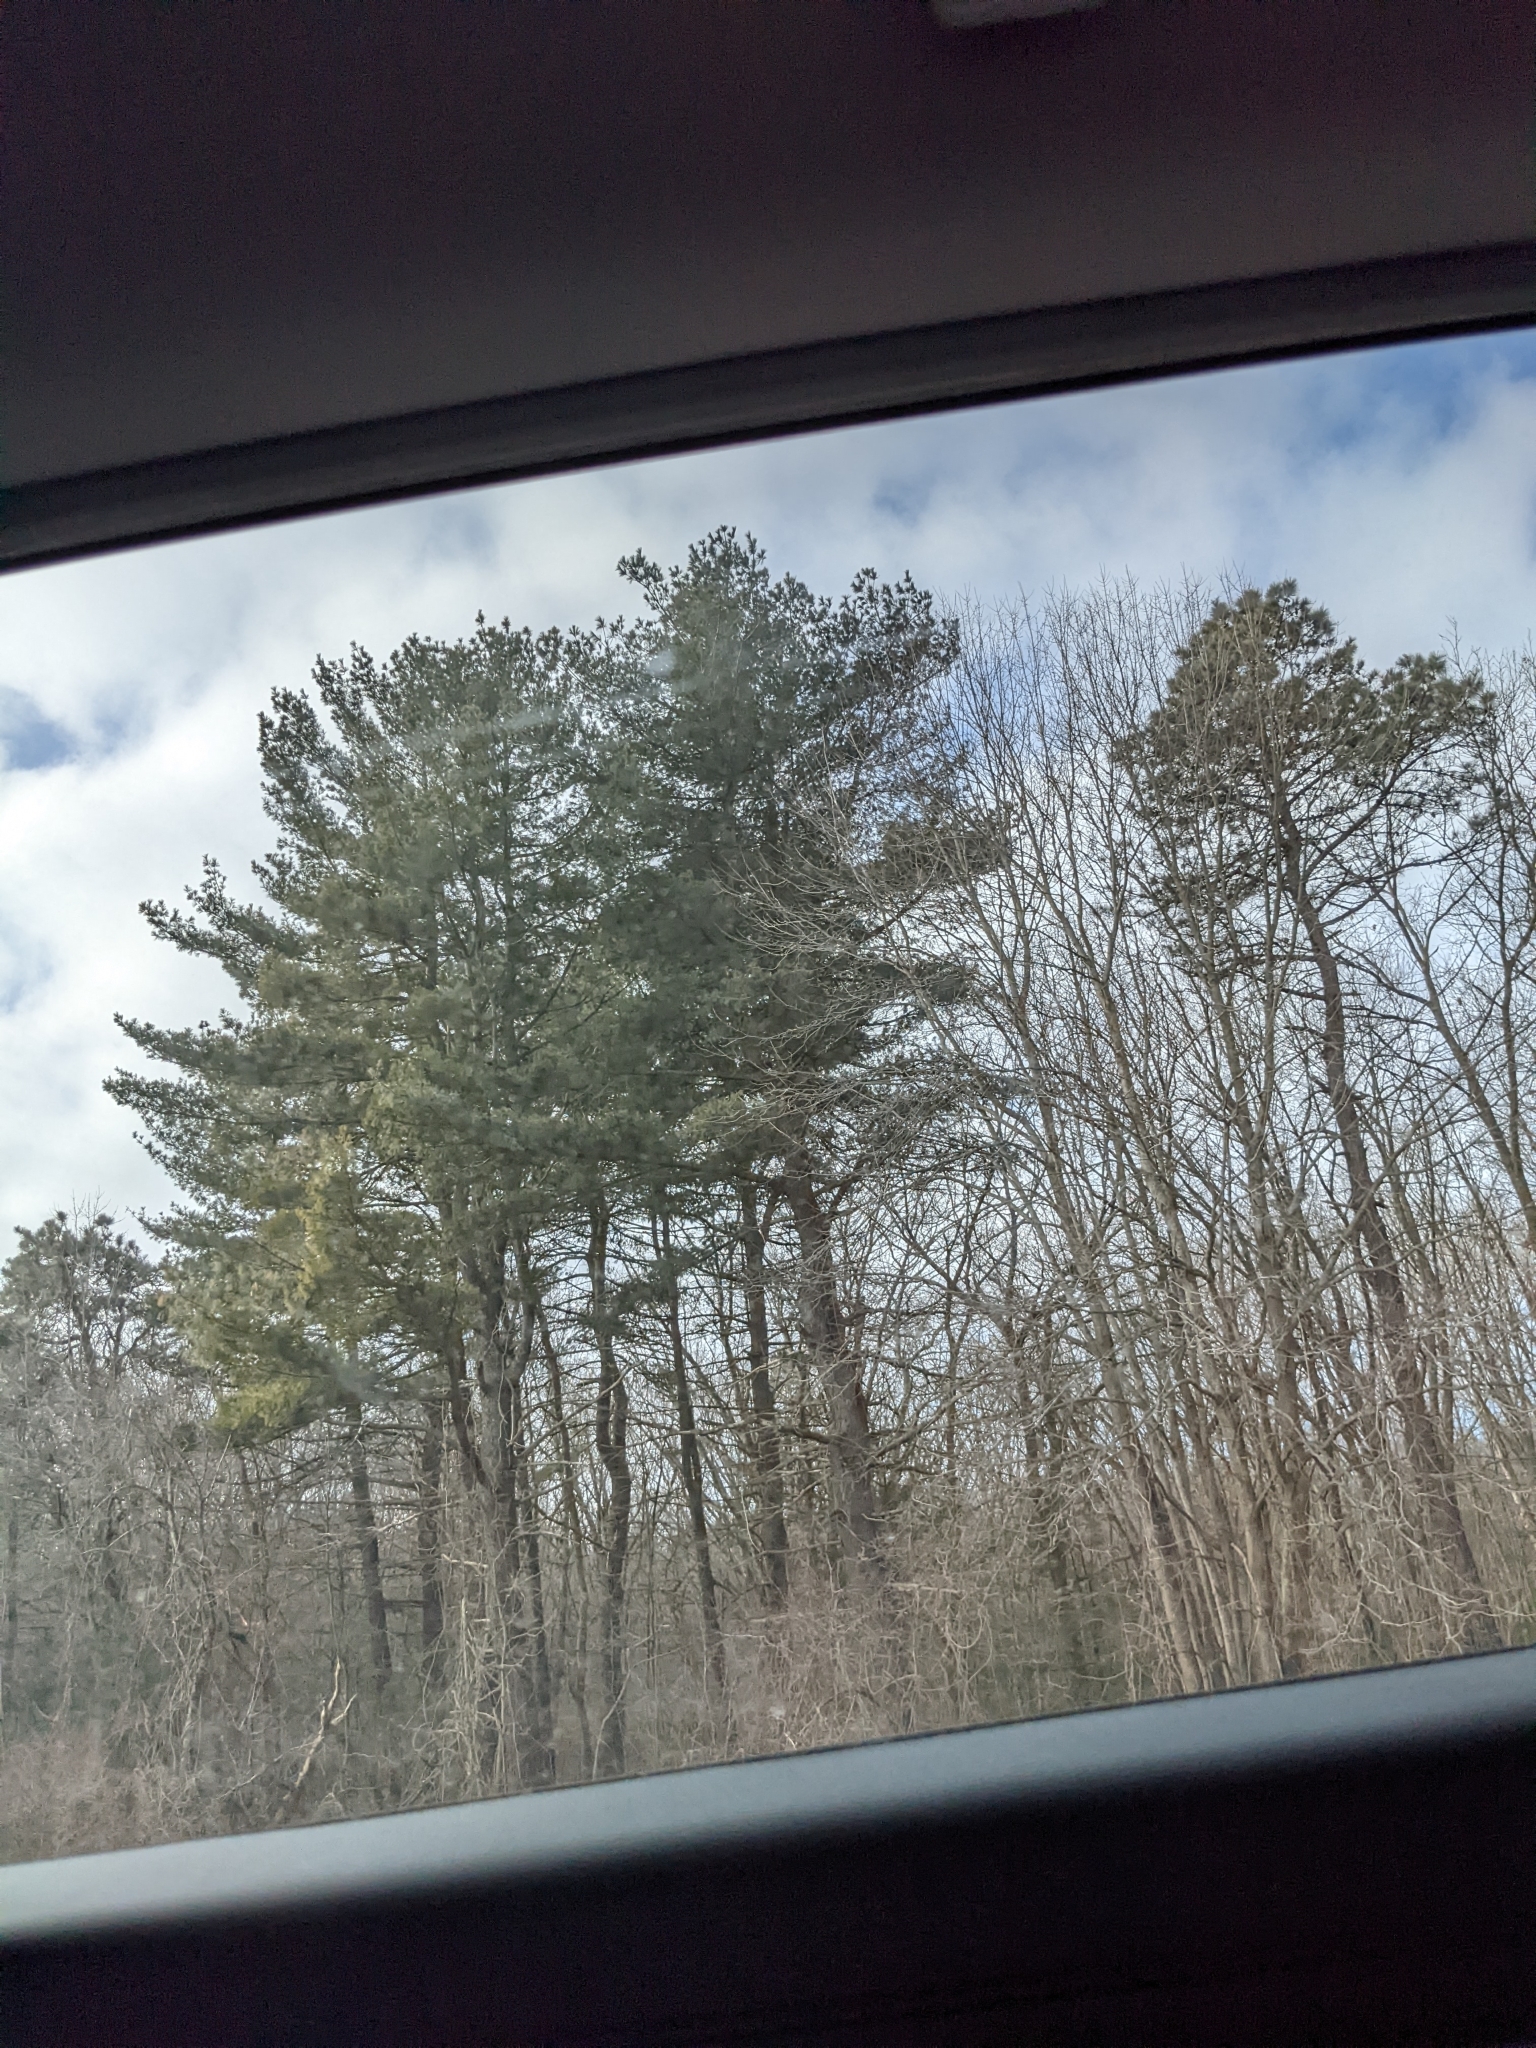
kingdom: Plantae
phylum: Tracheophyta
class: Pinopsida
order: Pinales
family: Pinaceae
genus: Pinus
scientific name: Pinus strobus
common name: Weymouth pine
